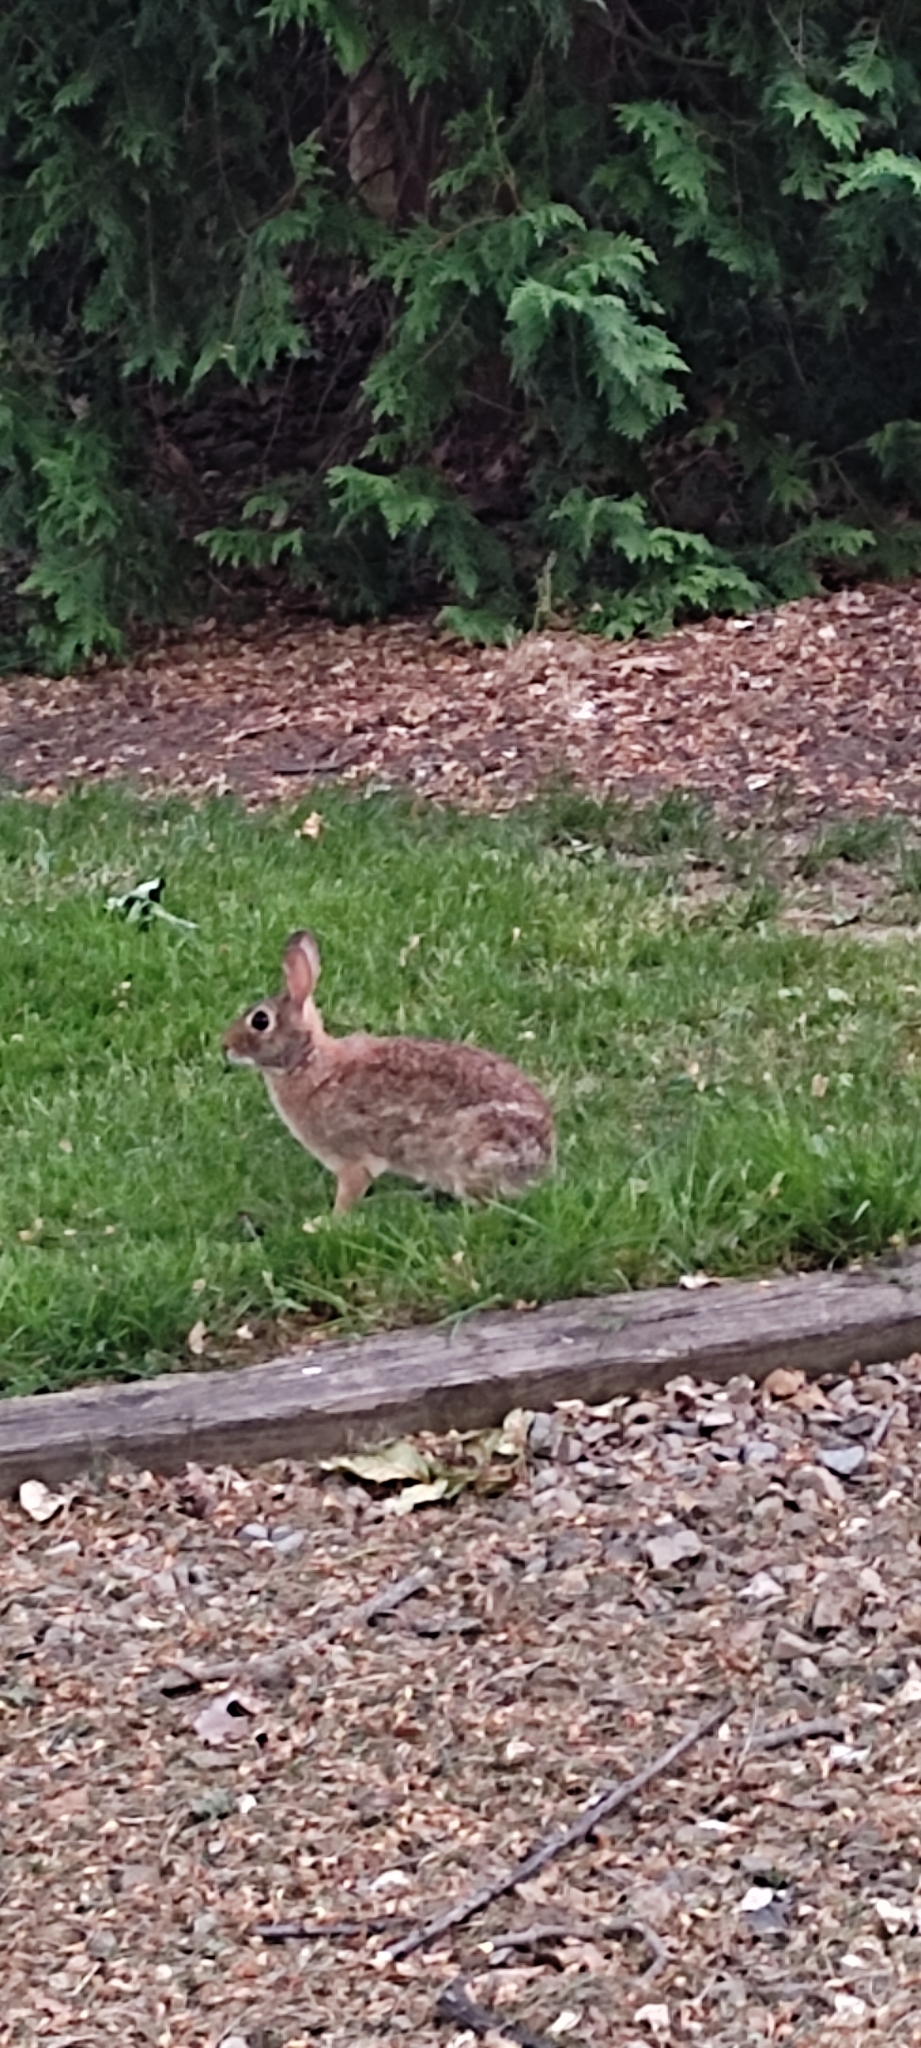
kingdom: Animalia
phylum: Chordata
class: Mammalia
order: Lagomorpha
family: Leporidae
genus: Sylvilagus
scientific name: Sylvilagus floridanus
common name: Eastern cottontail
